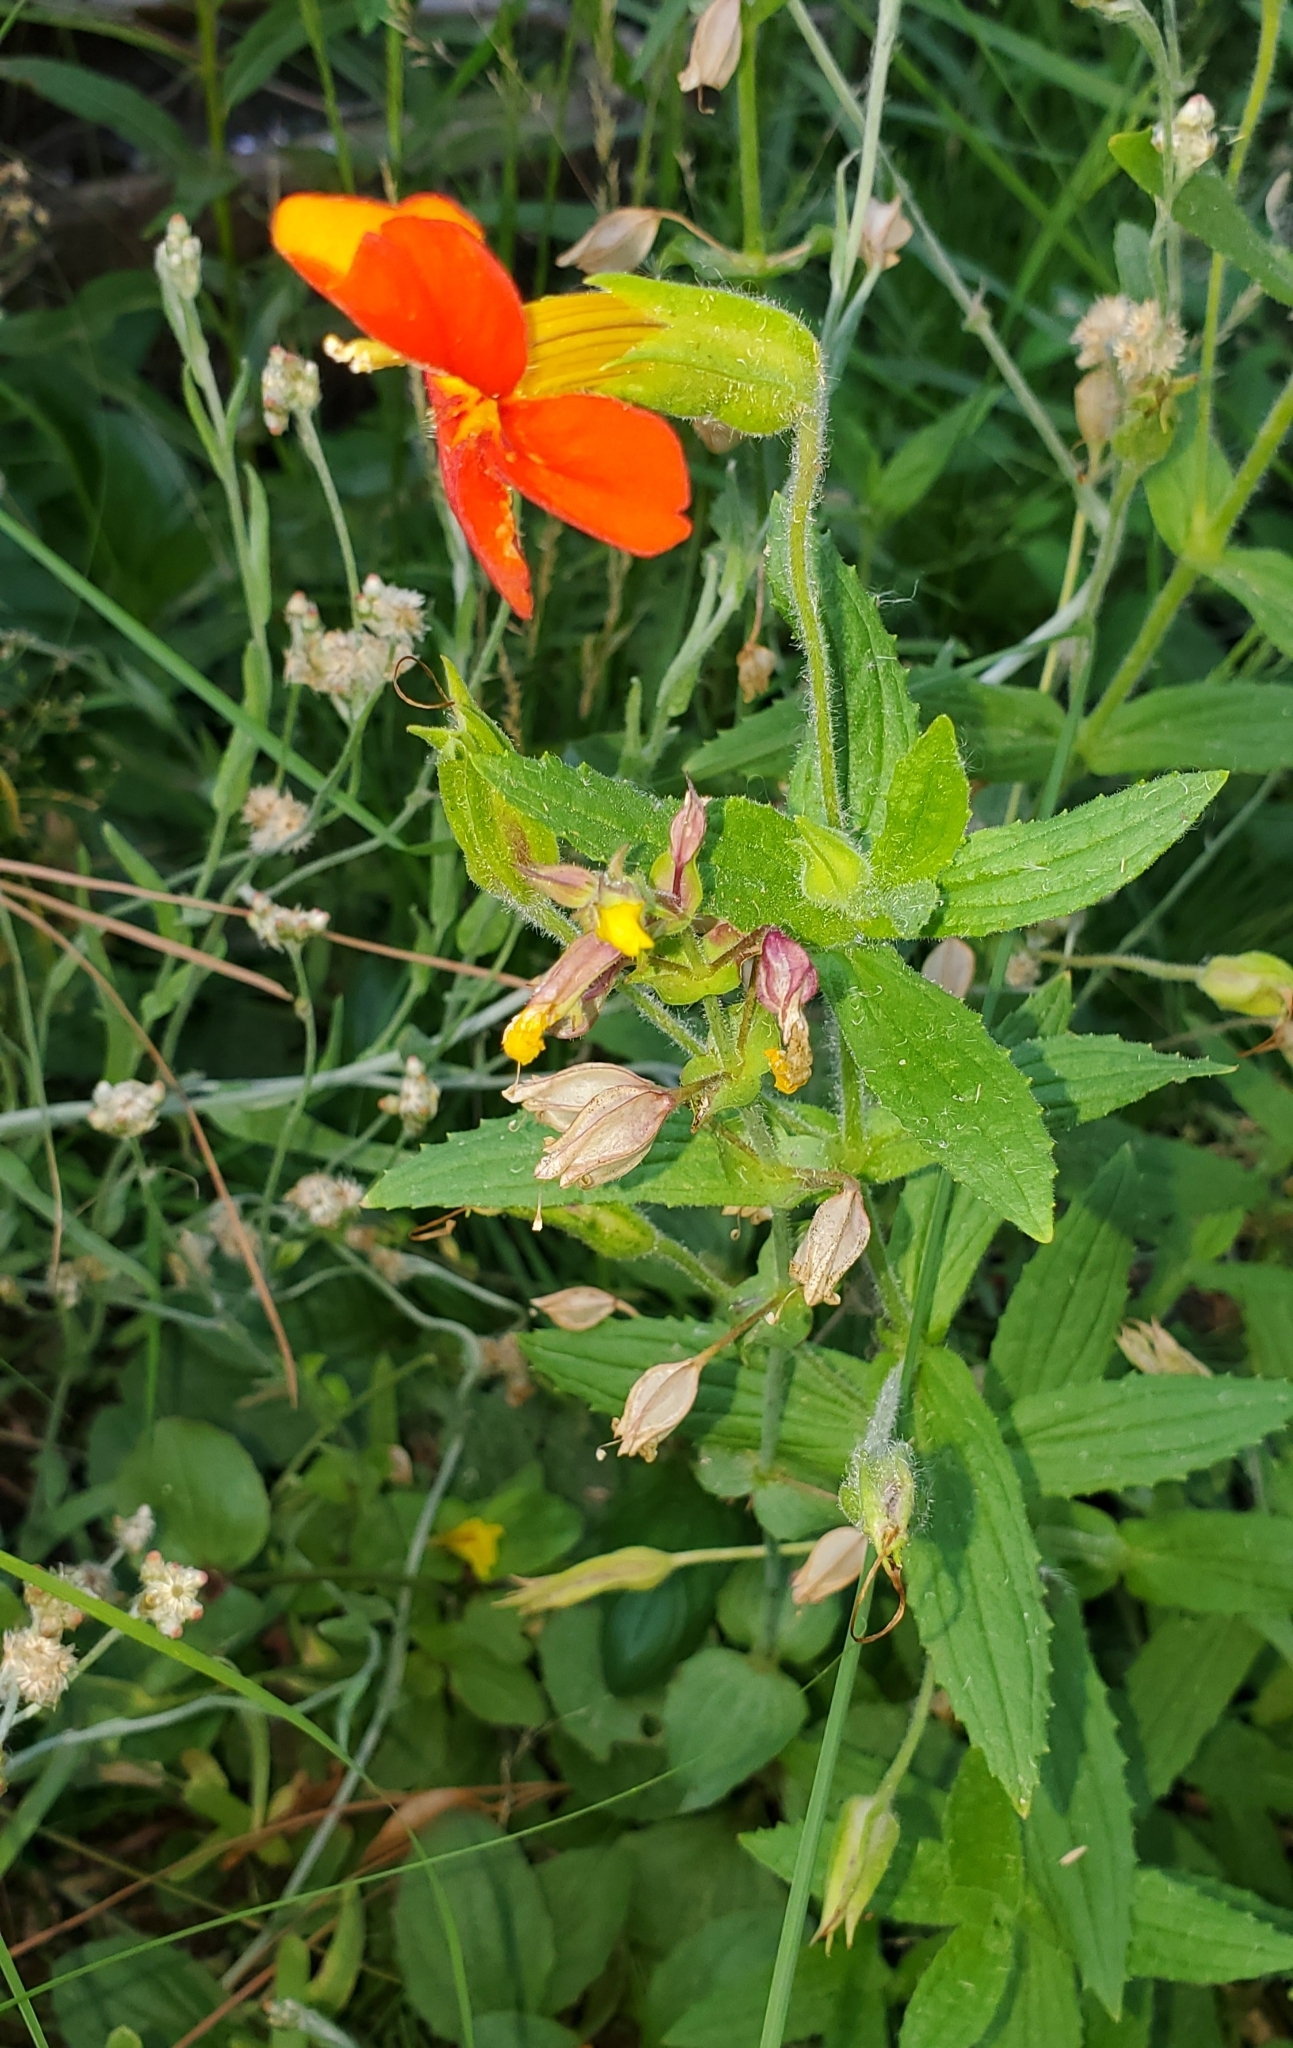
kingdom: Plantae
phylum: Tracheophyta
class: Magnoliopsida
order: Lamiales
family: Phrymaceae
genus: Erythranthe
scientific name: Erythranthe cinnabarina
